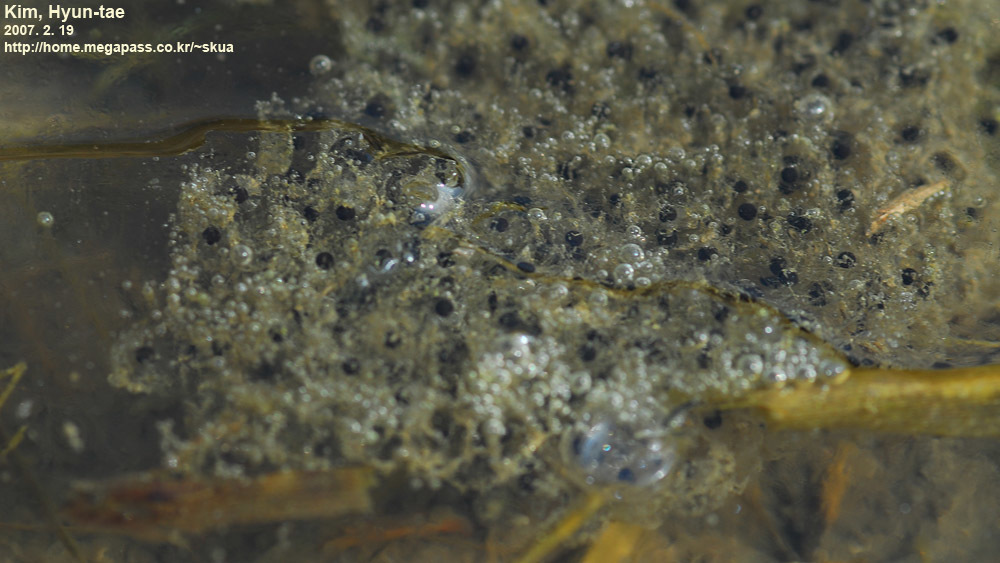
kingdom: Animalia
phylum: Chordata
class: Amphibia
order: Anura
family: Ranidae
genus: Rana
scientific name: Rana uenoi
